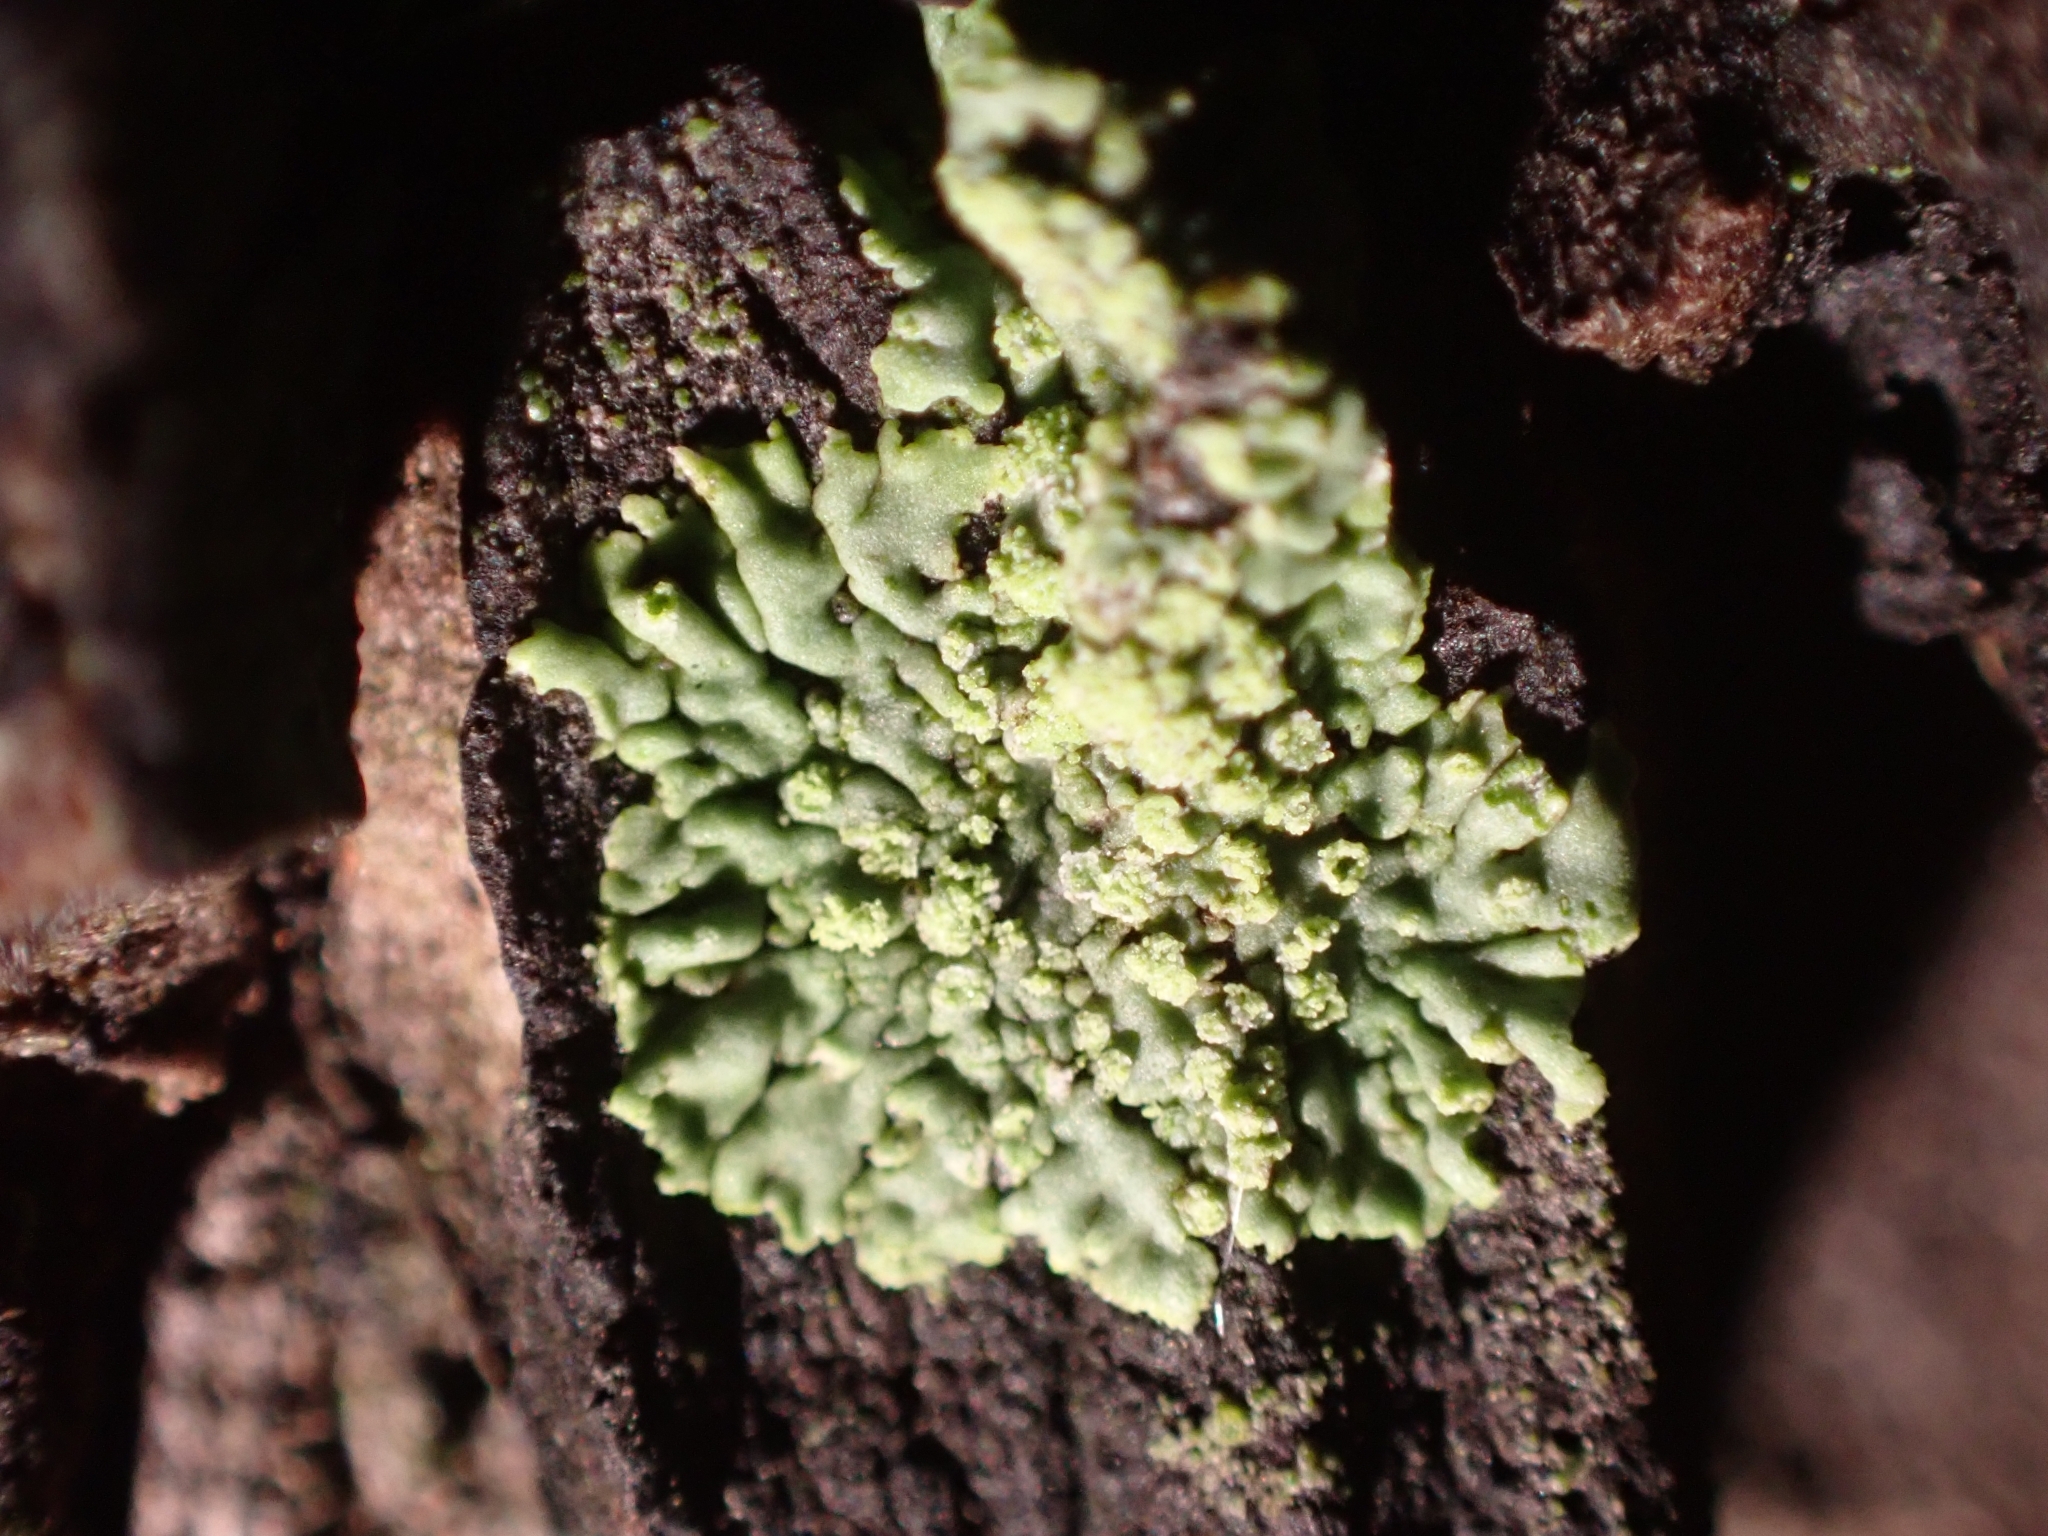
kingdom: Fungi
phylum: Ascomycota
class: Lecanoromycetes
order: Caliciales
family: Physciaceae
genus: Hyperphyscia
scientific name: Hyperphyscia adglutinata
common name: Grainy shadow-crust lichen
